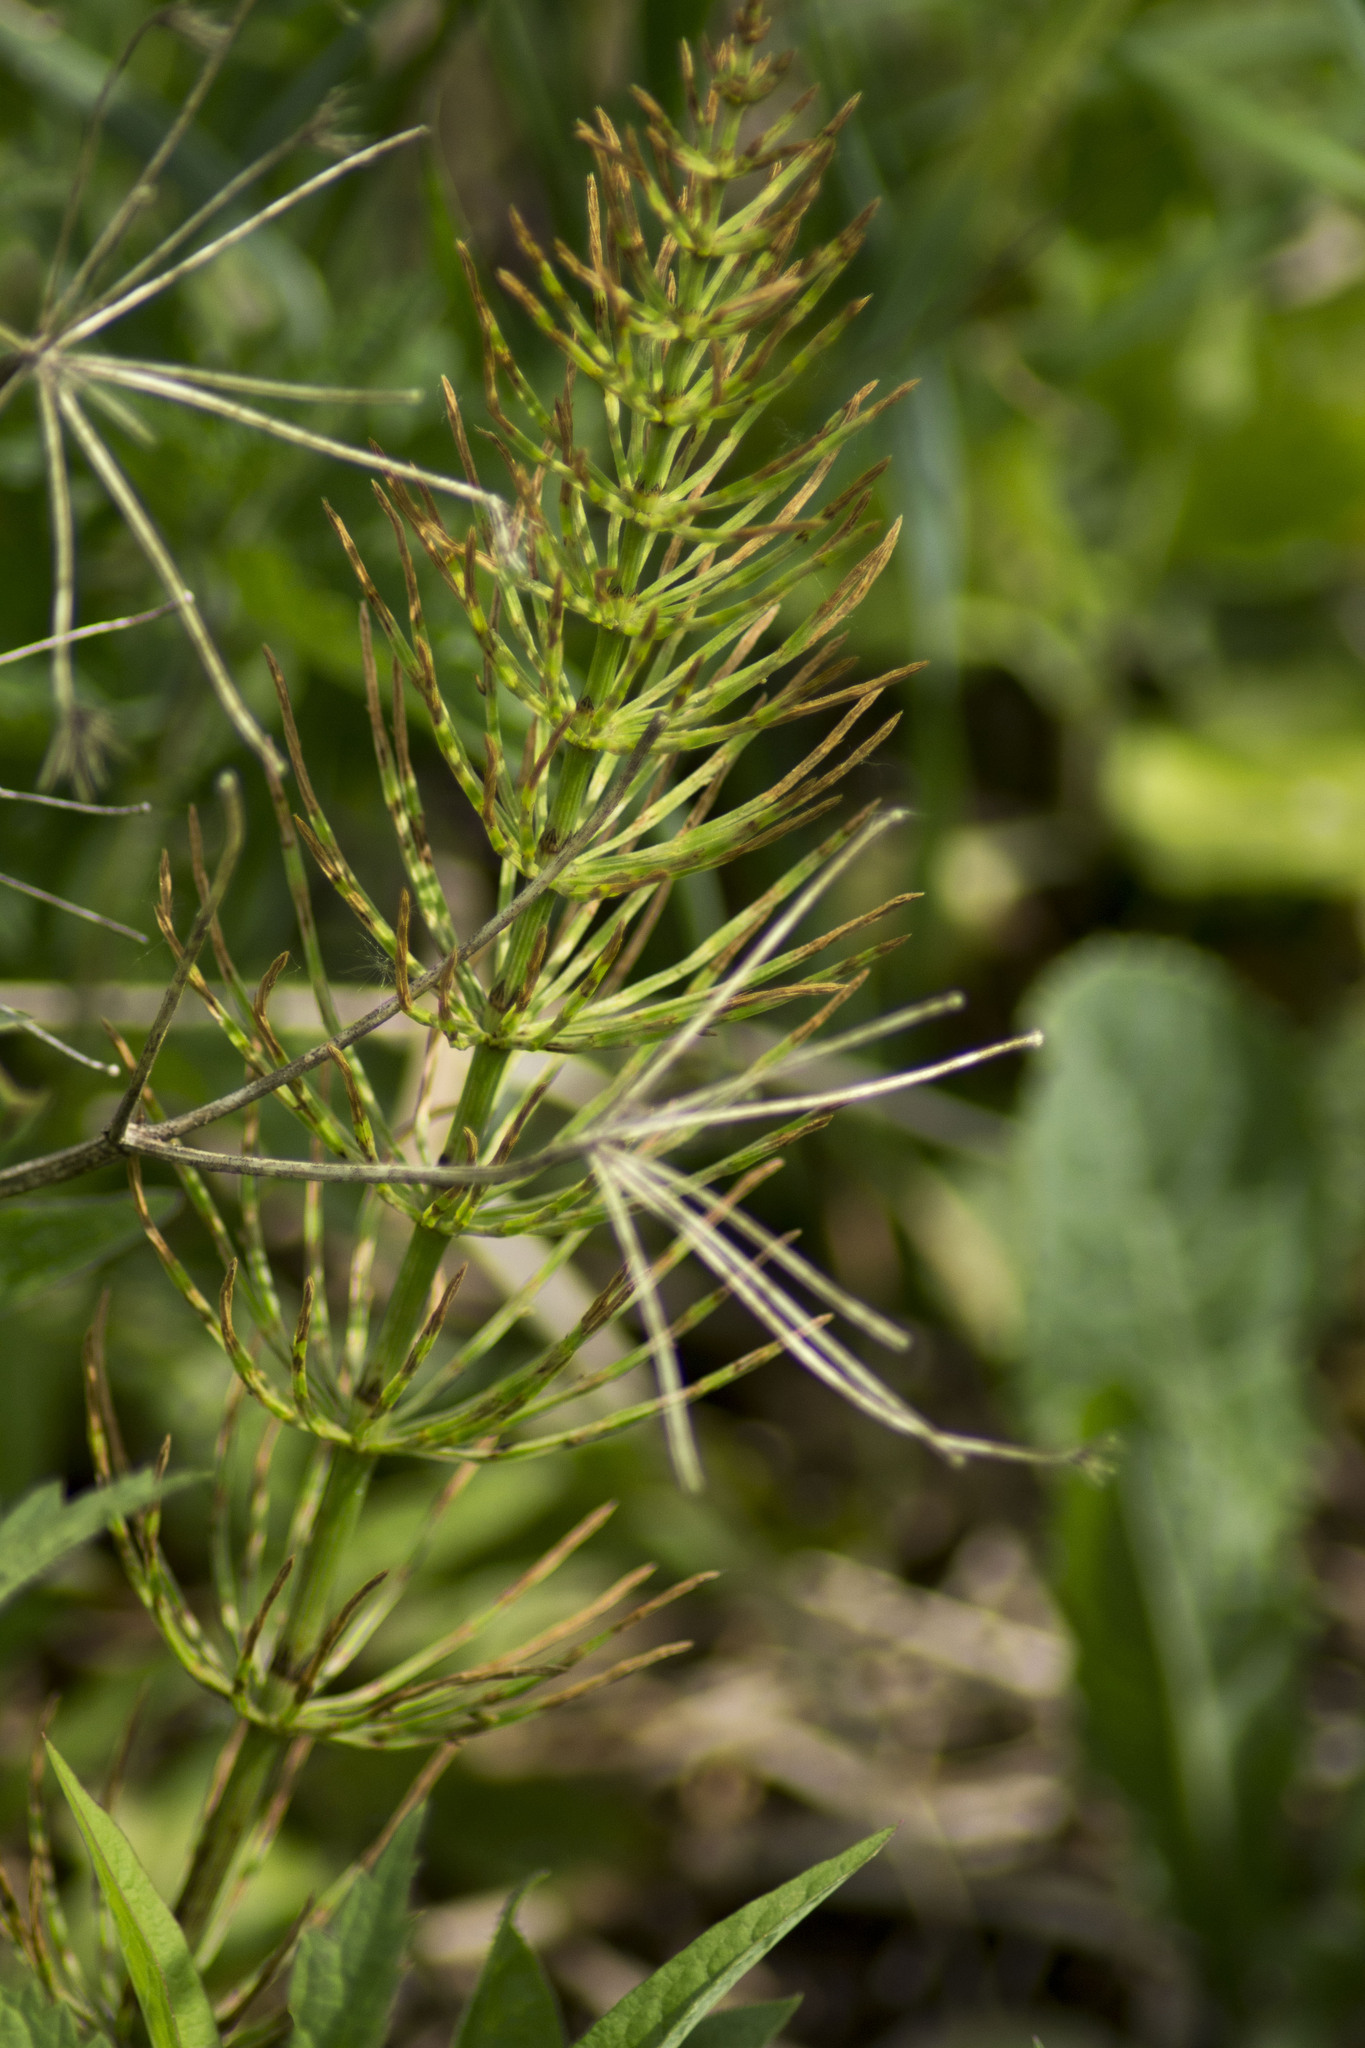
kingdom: Plantae
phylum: Tracheophyta
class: Polypodiopsida
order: Equisetales
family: Equisetaceae
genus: Equisetum
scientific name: Equisetum arvense
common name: Field horsetail
